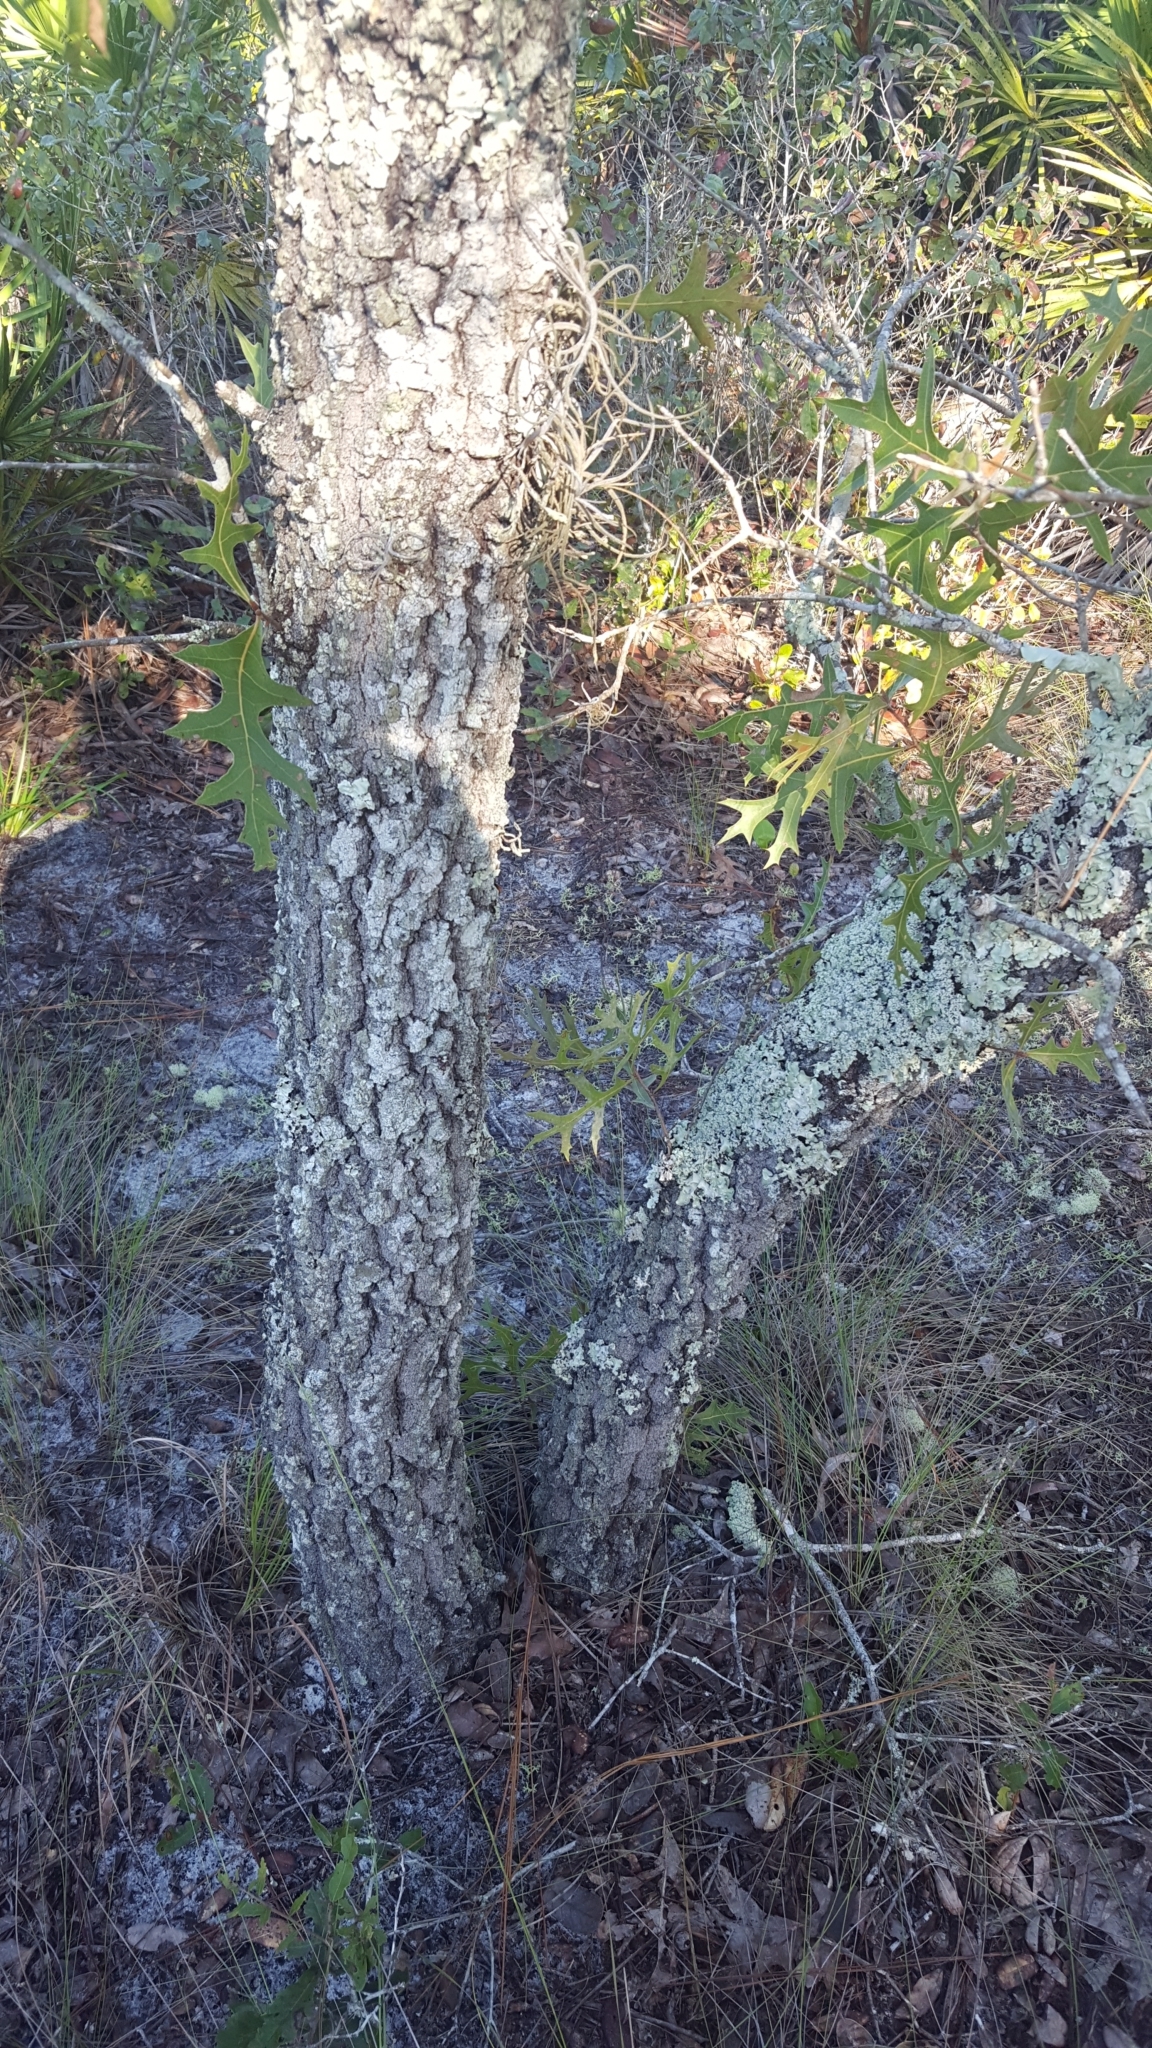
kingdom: Plantae
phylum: Tracheophyta
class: Magnoliopsida
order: Fagales
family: Fagaceae
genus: Quercus
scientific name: Quercus laevis
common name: Turkey oak
